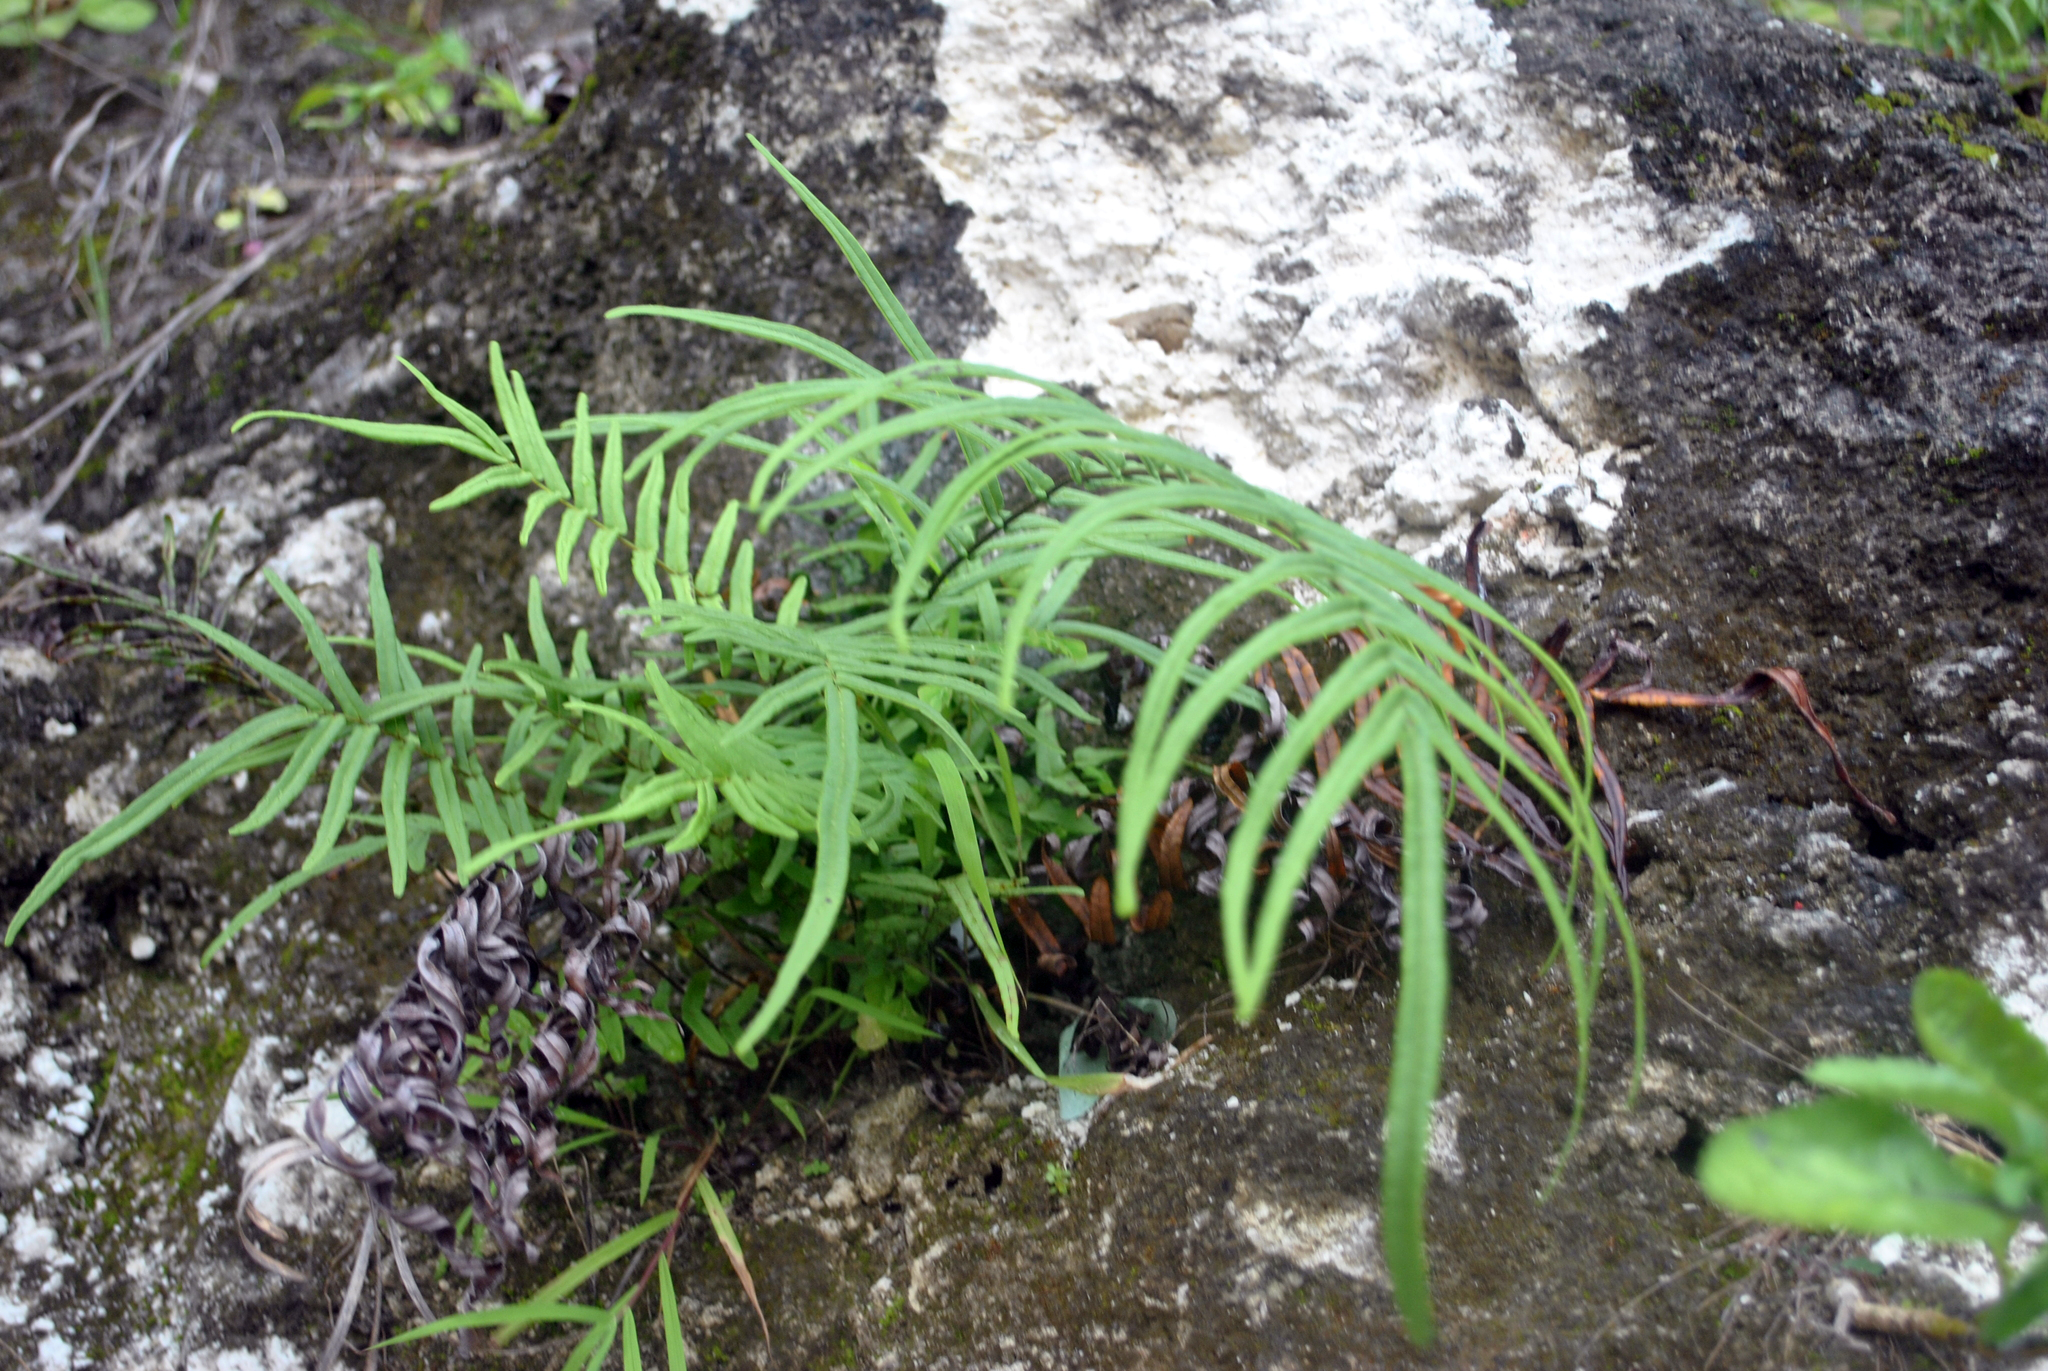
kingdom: Plantae
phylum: Tracheophyta
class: Polypodiopsida
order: Polypodiales
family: Pteridaceae
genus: Pteris
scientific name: Pteris vittata
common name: Ladder brake
